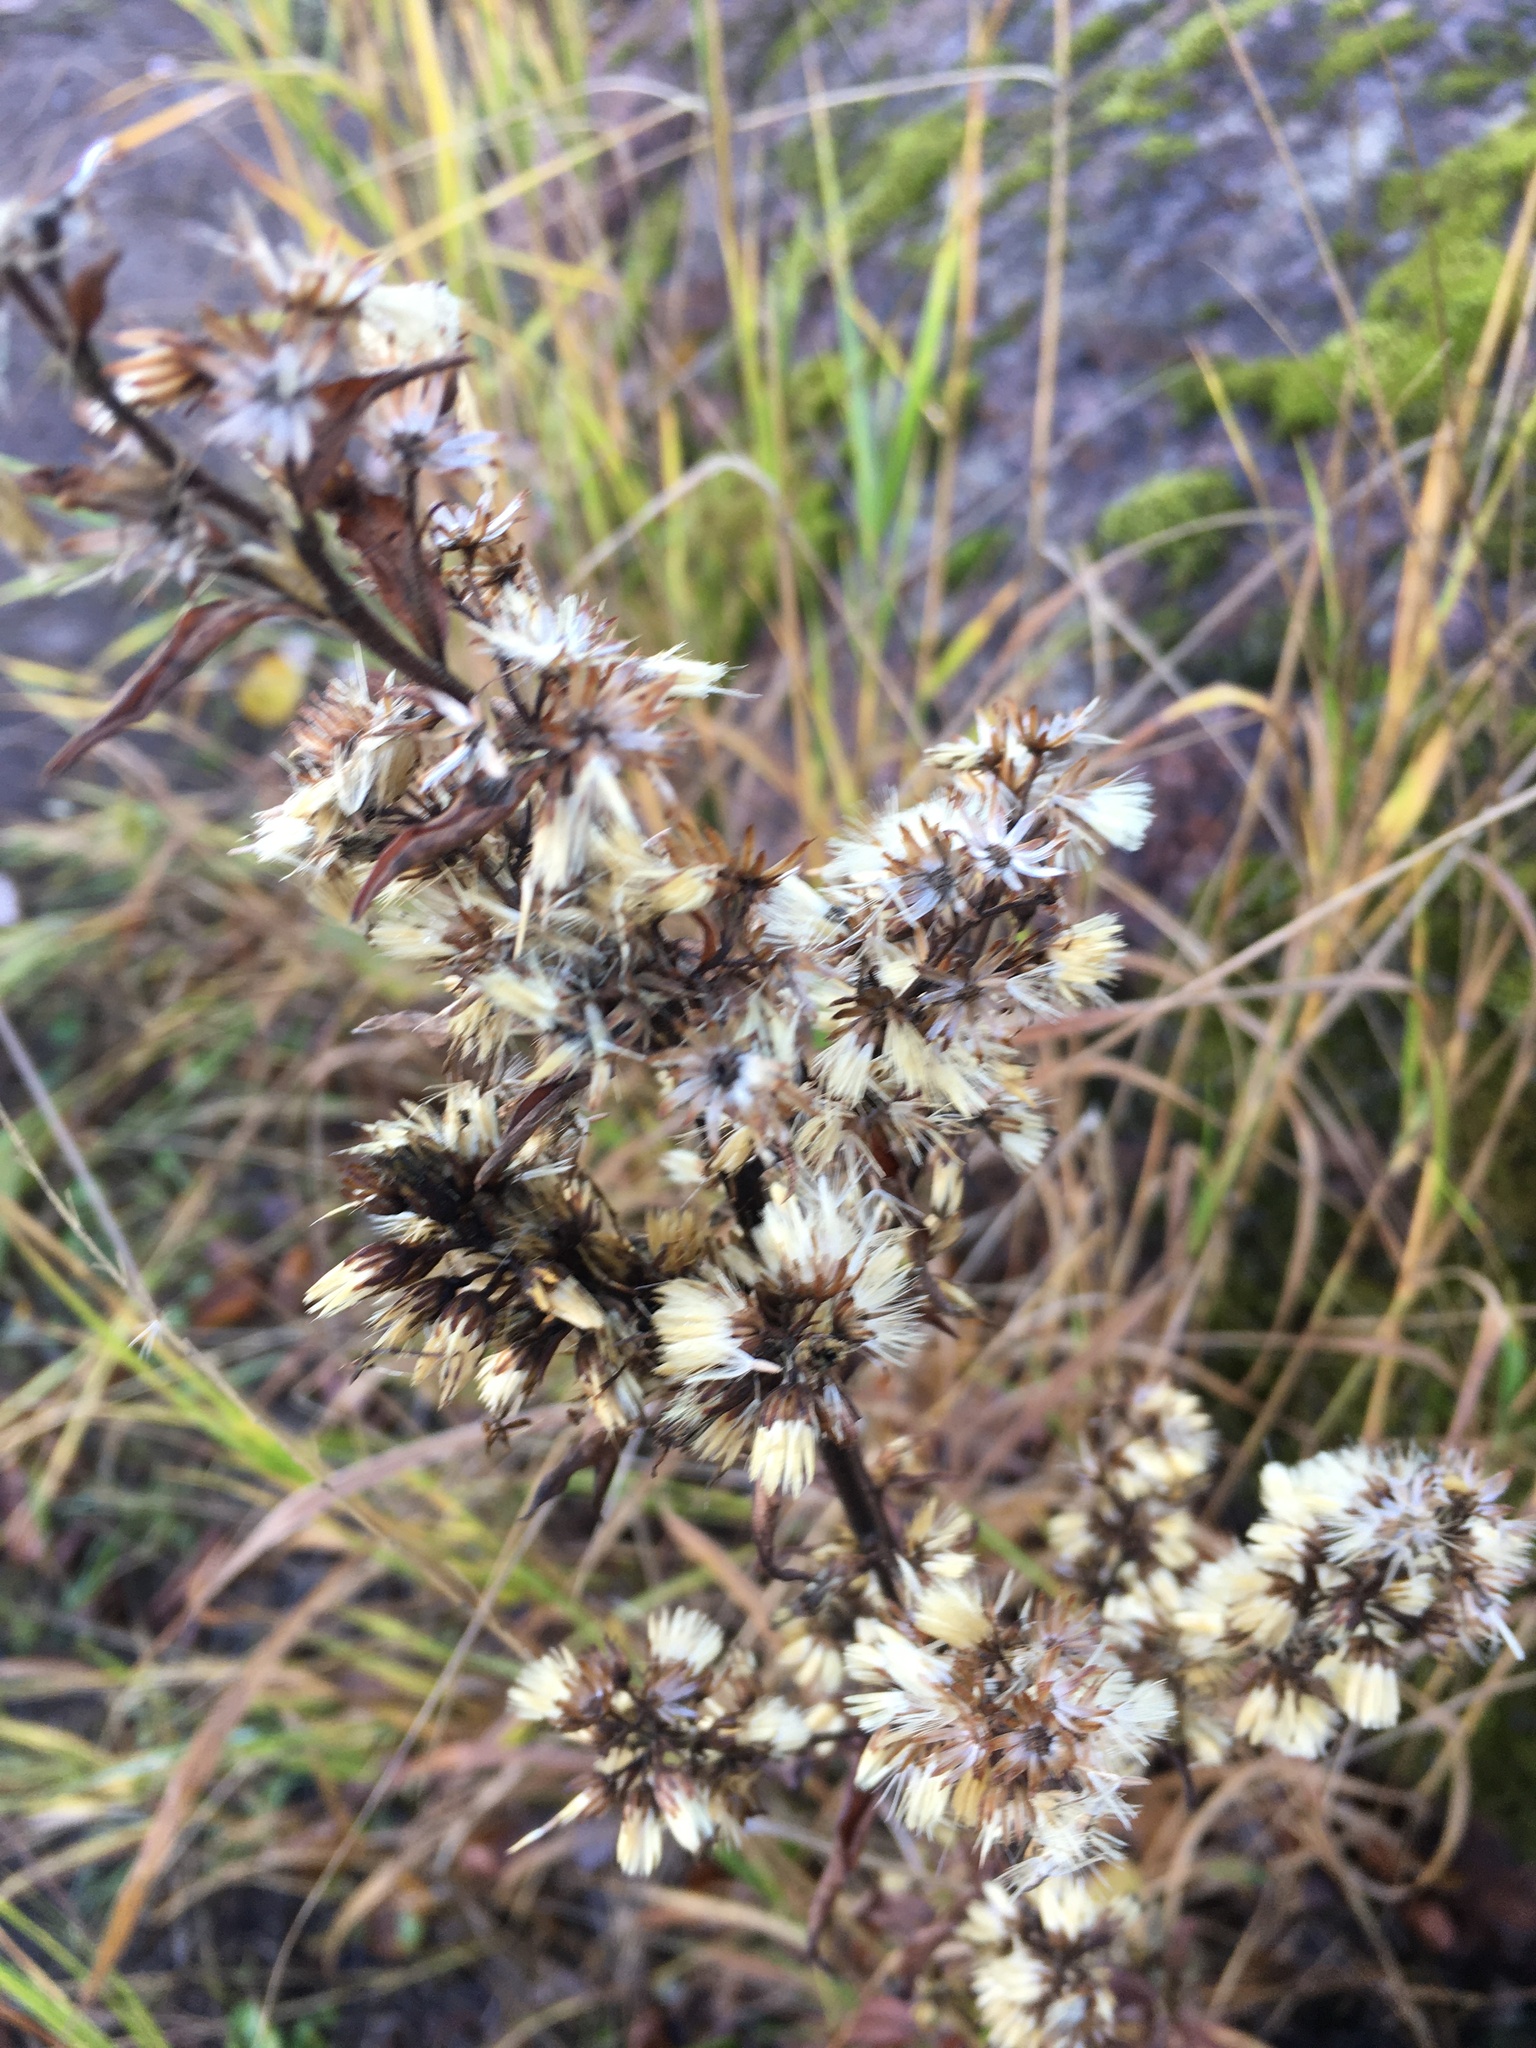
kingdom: Plantae
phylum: Tracheophyta
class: Magnoliopsida
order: Asterales
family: Asteraceae
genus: Solidago
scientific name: Solidago virgaurea
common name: Goldenrod
